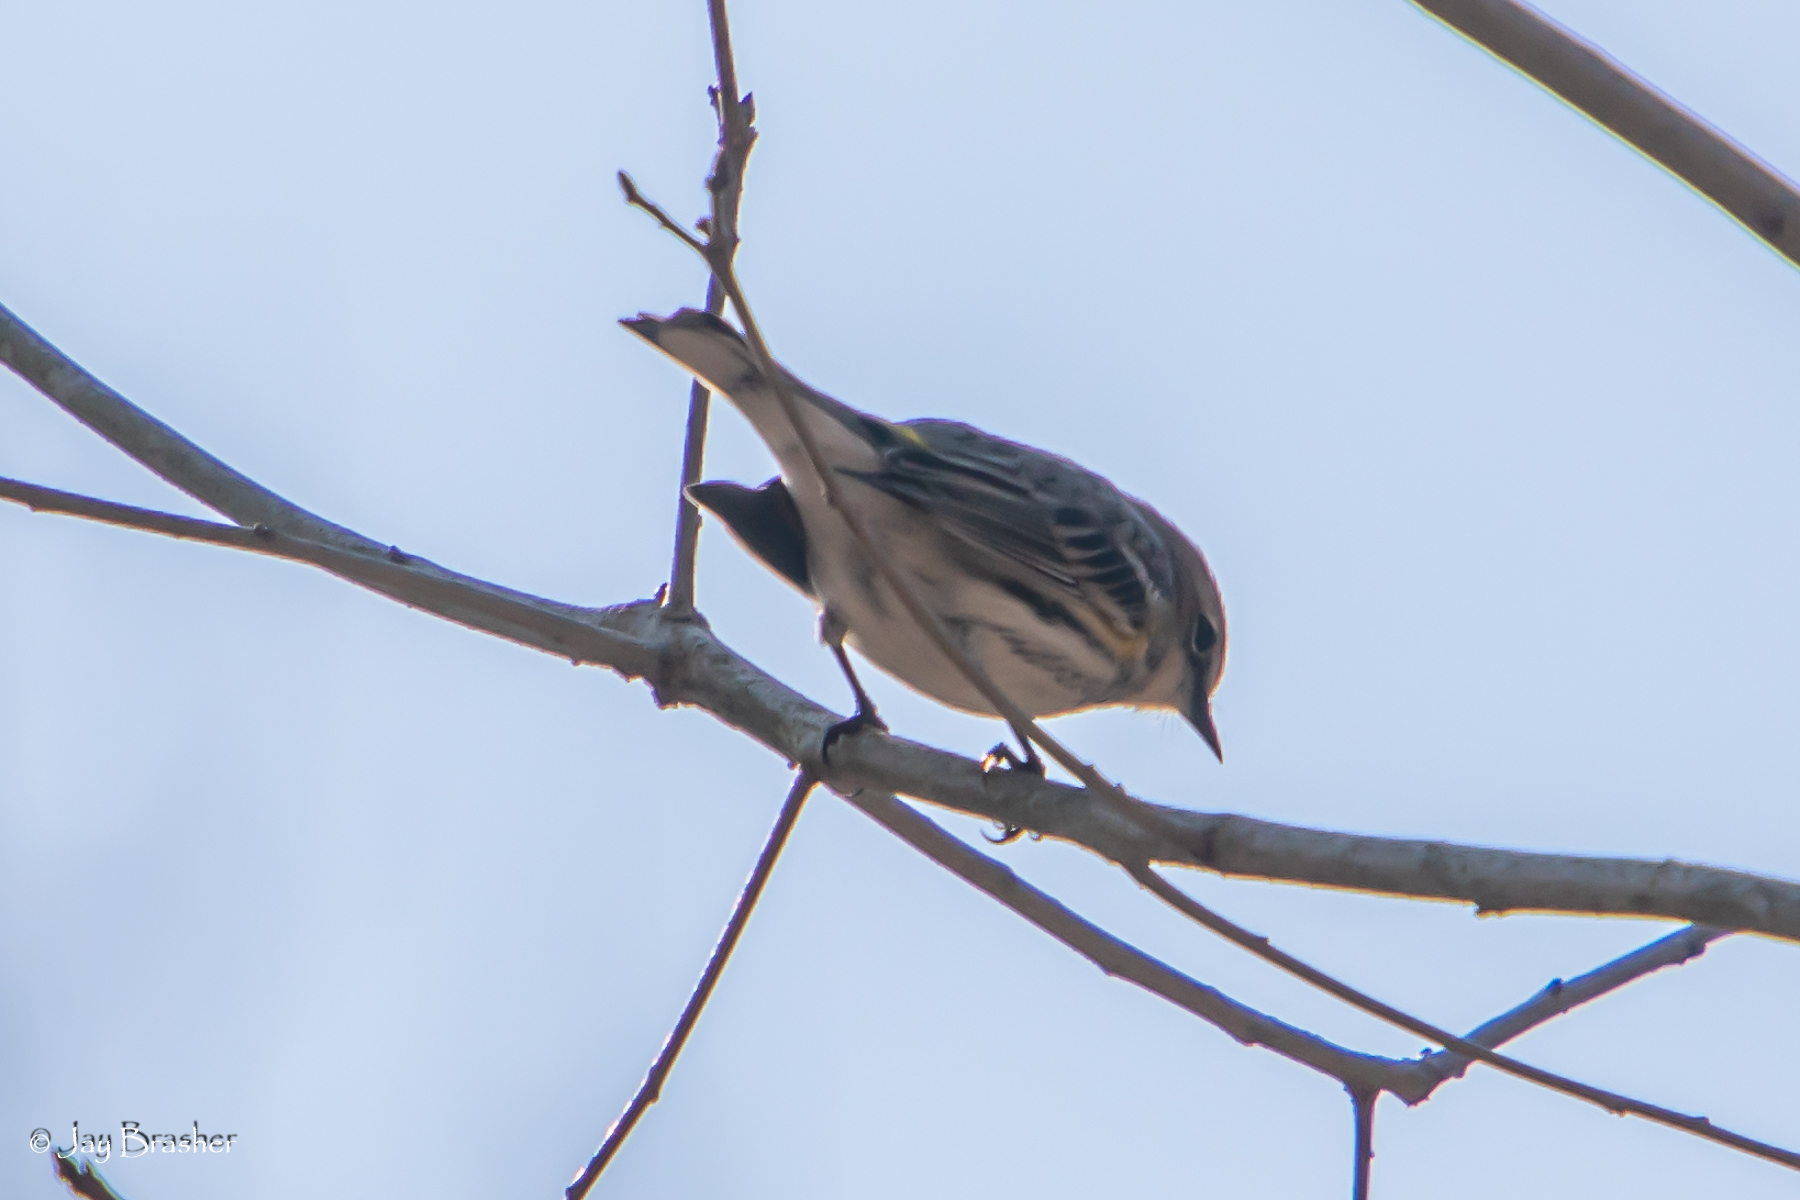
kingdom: Animalia
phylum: Chordata
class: Aves
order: Passeriformes
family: Parulidae
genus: Setophaga
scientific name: Setophaga coronata
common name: Myrtle warbler
